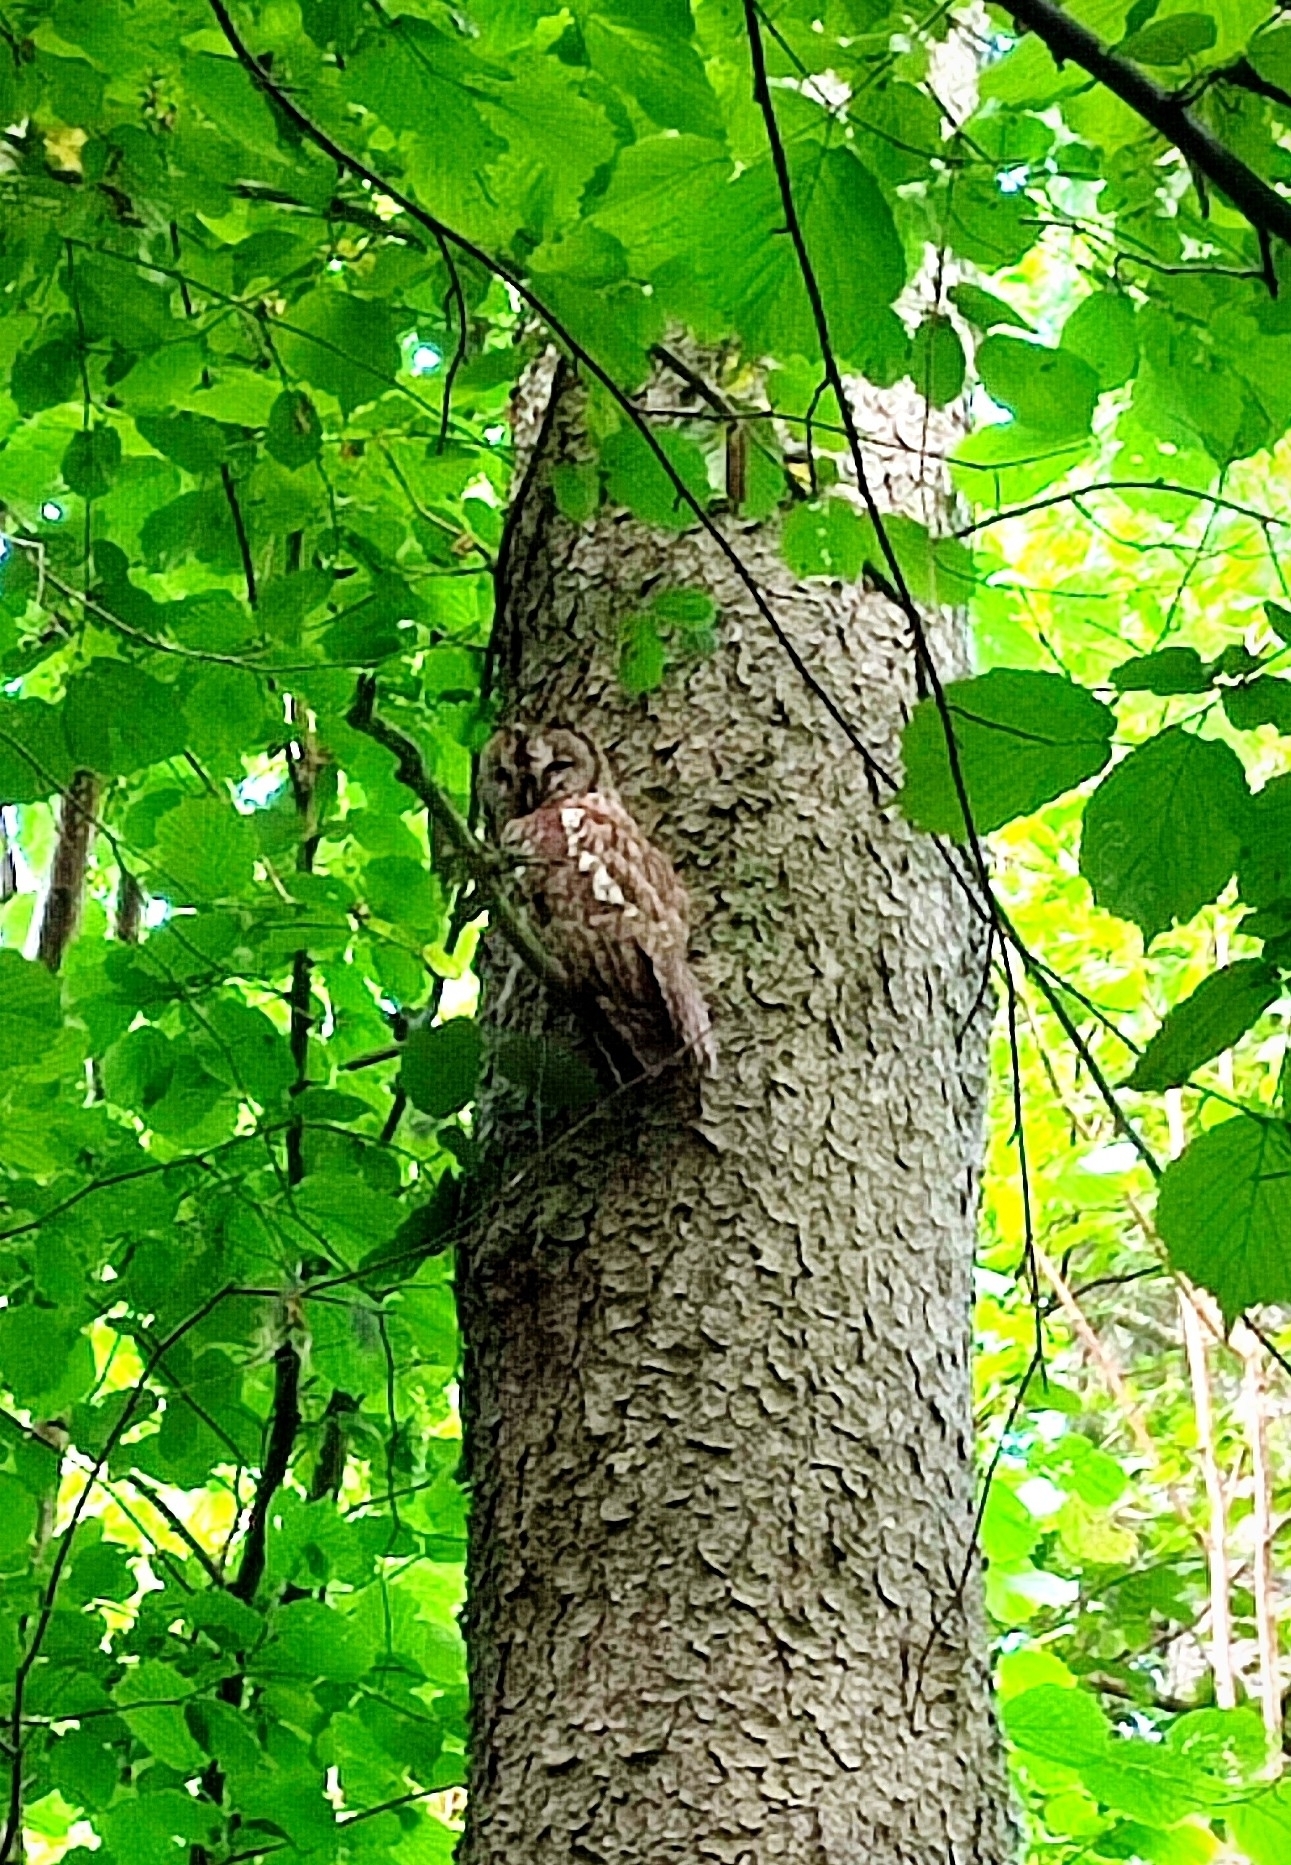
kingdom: Animalia
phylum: Chordata
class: Aves
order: Strigiformes
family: Strigidae
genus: Strix
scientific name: Strix aluco
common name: Tawny owl
